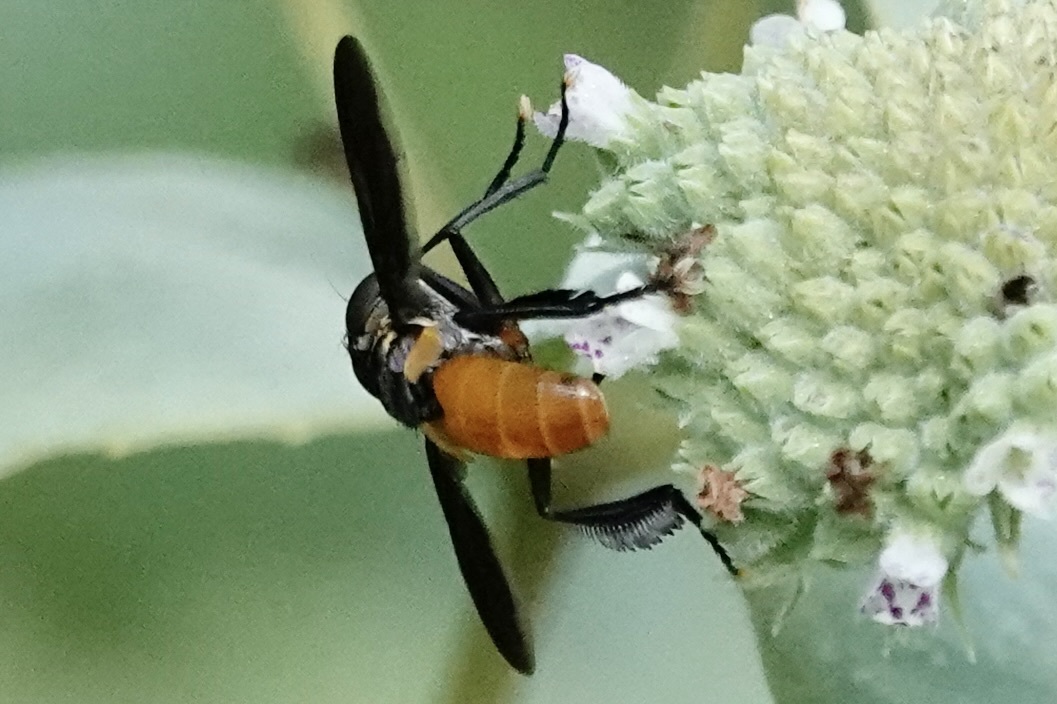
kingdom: Animalia
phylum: Arthropoda
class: Insecta
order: Diptera
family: Tachinidae
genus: Trichopoda
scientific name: Trichopoda pennipes
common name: Tachinid fly
